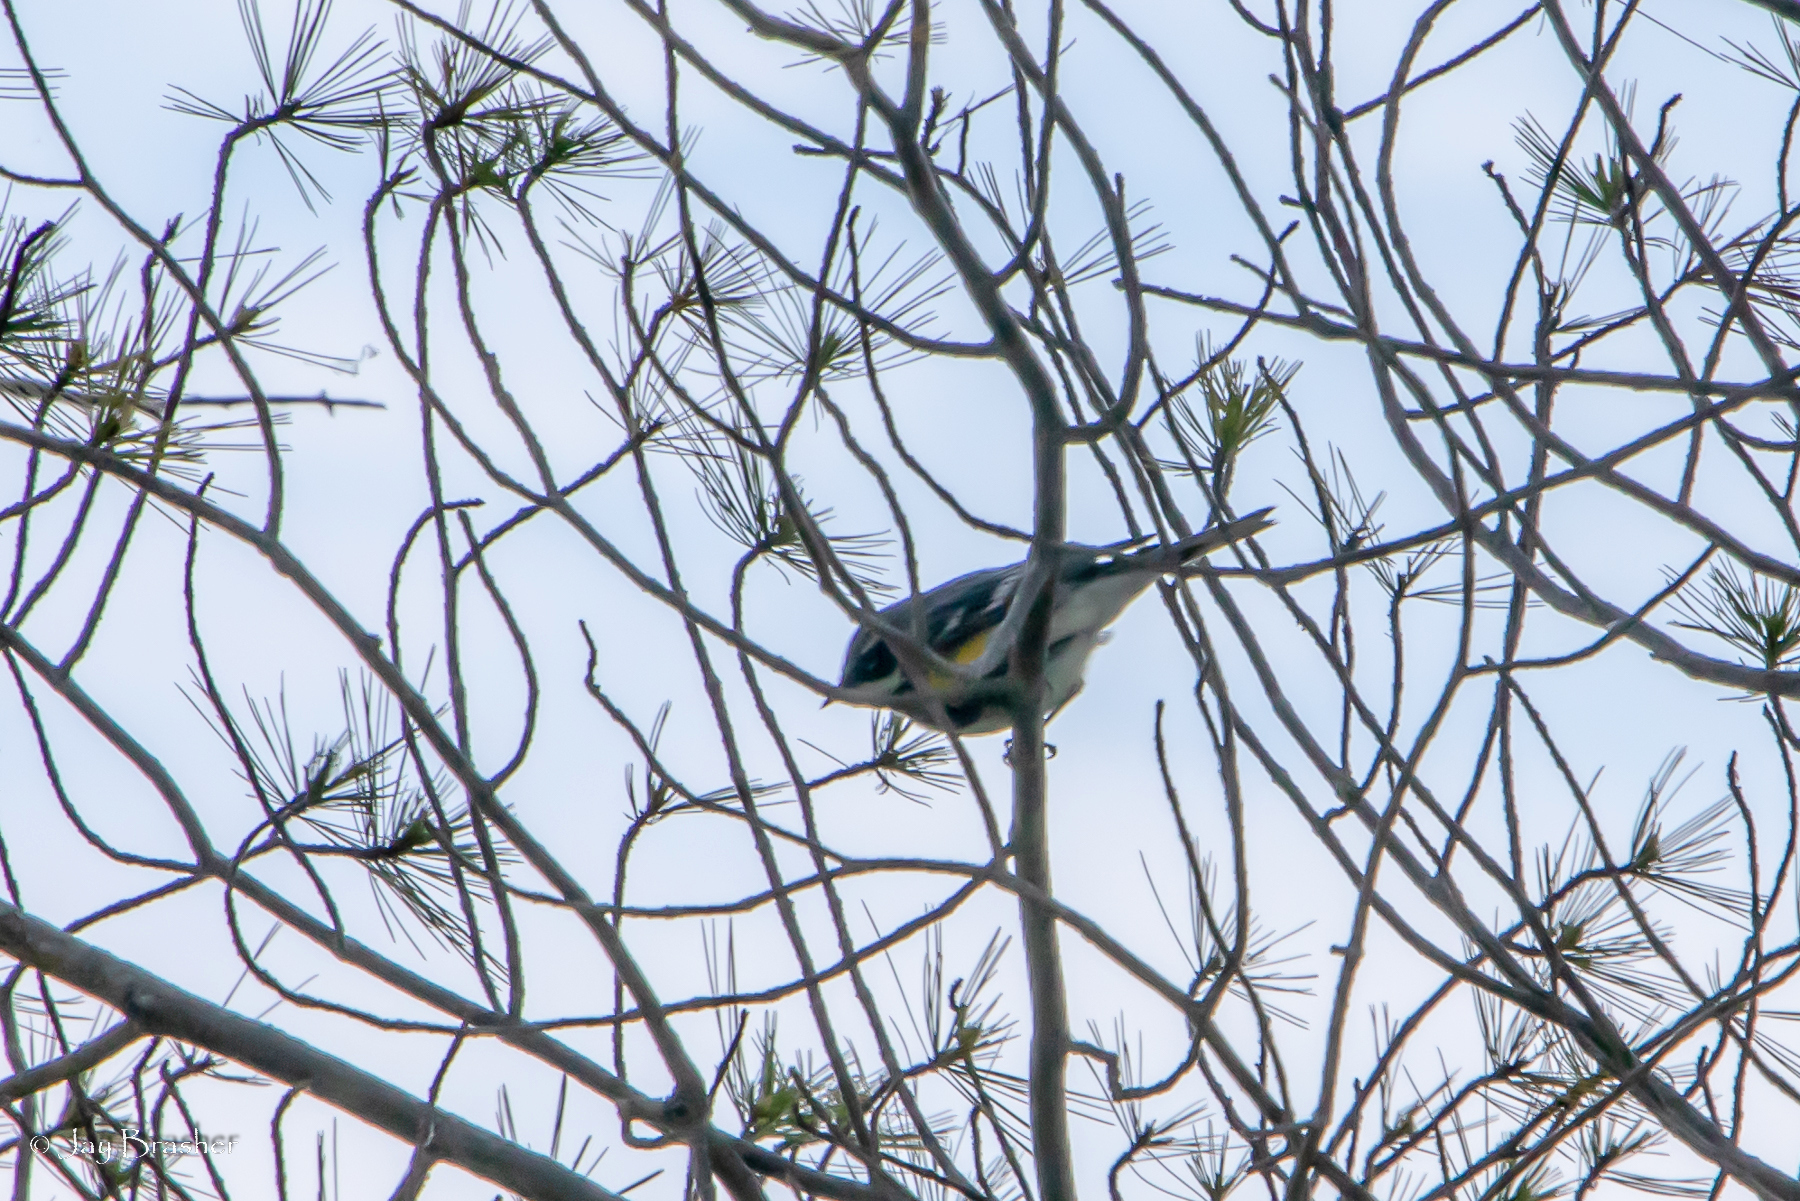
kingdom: Animalia
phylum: Chordata
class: Aves
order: Passeriformes
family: Parulidae
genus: Setophaga
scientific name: Setophaga coronata
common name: Myrtle warbler
